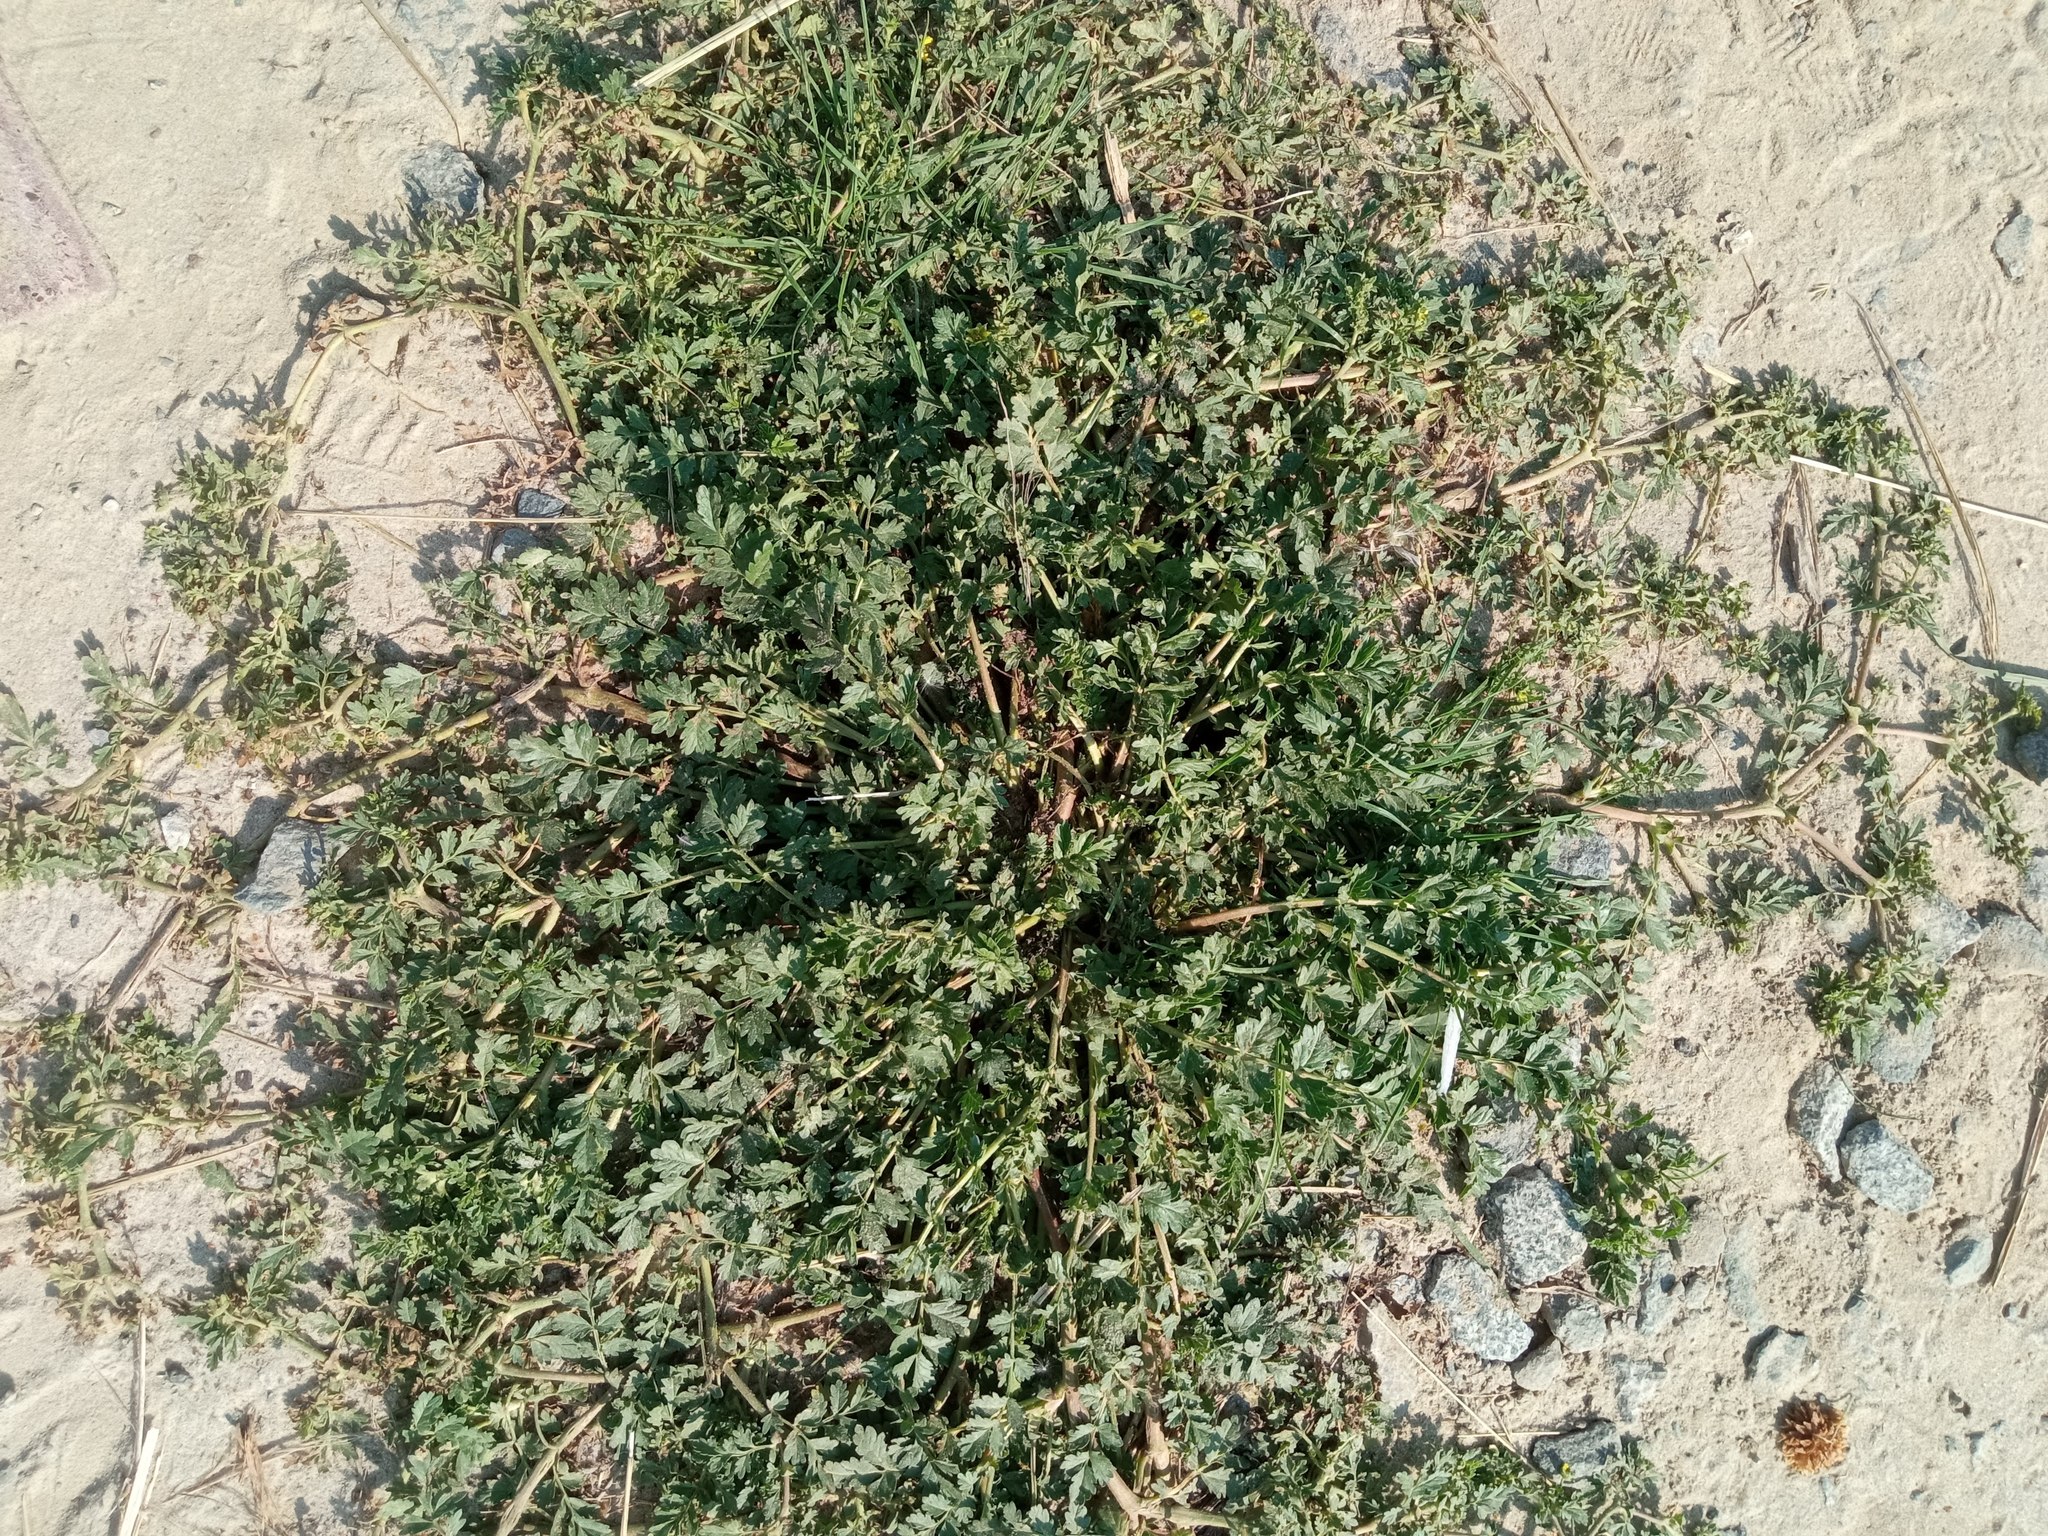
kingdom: Plantae
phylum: Tracheophyta
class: Magnoliopsida
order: Rosales
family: Rosaceae
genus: Potentilla
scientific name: Potentilla supina
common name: Prostrate cinquefoil
